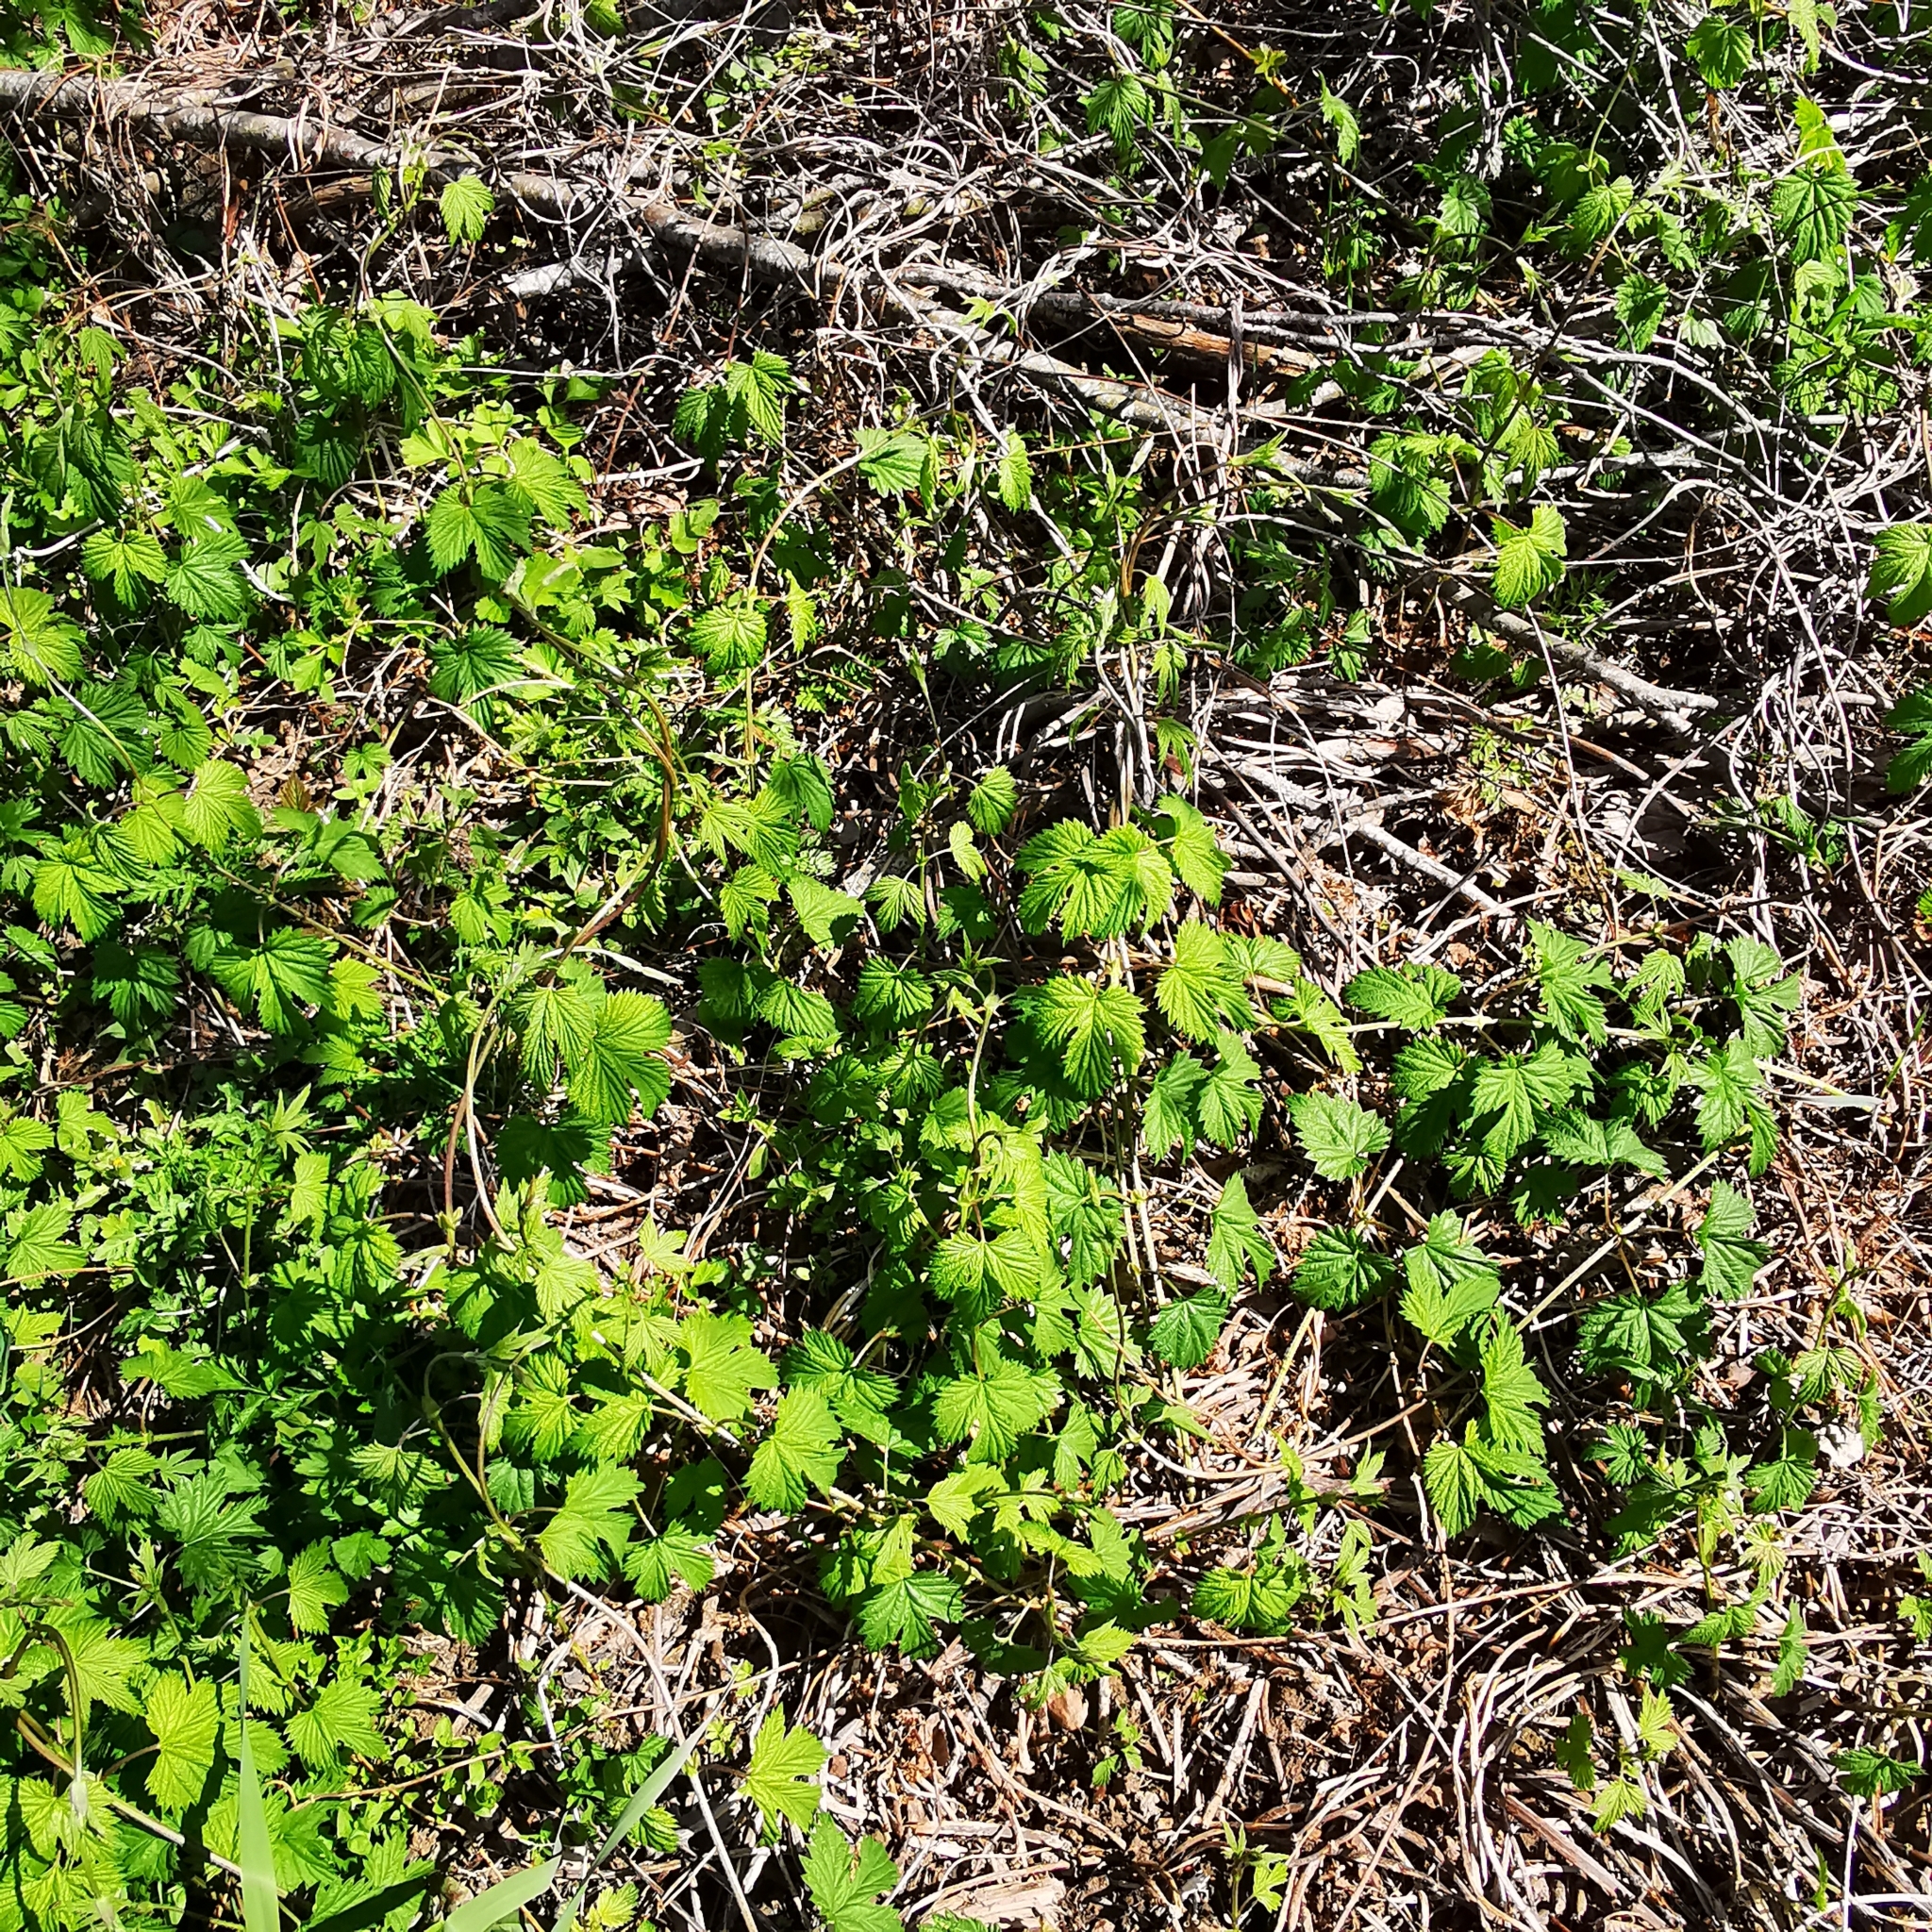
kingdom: Plantae
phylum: Tracheophyta
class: Magnoliopsida
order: Rosales
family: Cannabaceae
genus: Humulus
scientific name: Humulus lupulus
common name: Hop
